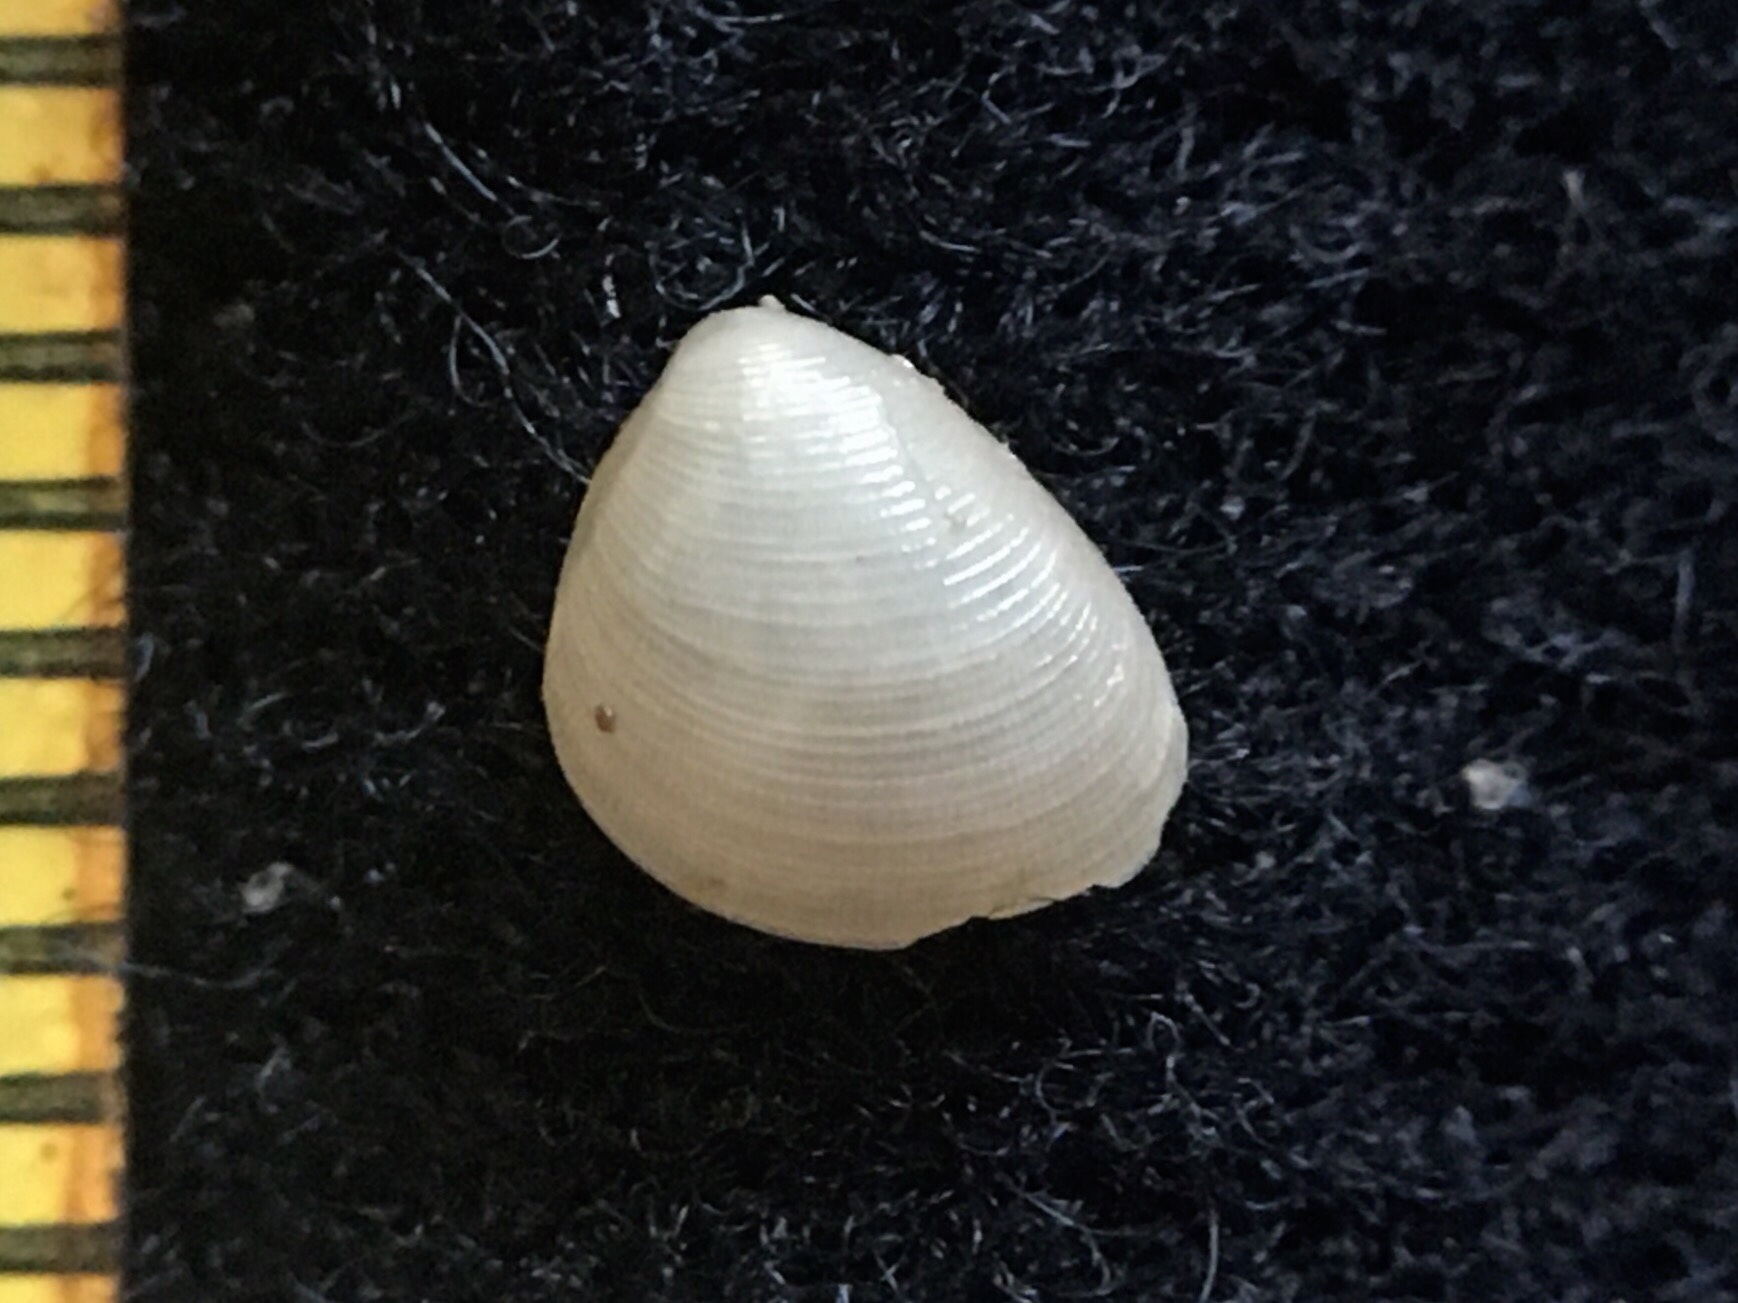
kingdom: Animalia
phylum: Mollusca
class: Bivalvia
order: Nuculida
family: Nuculidae
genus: Nucula
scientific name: Nucula semiornata
